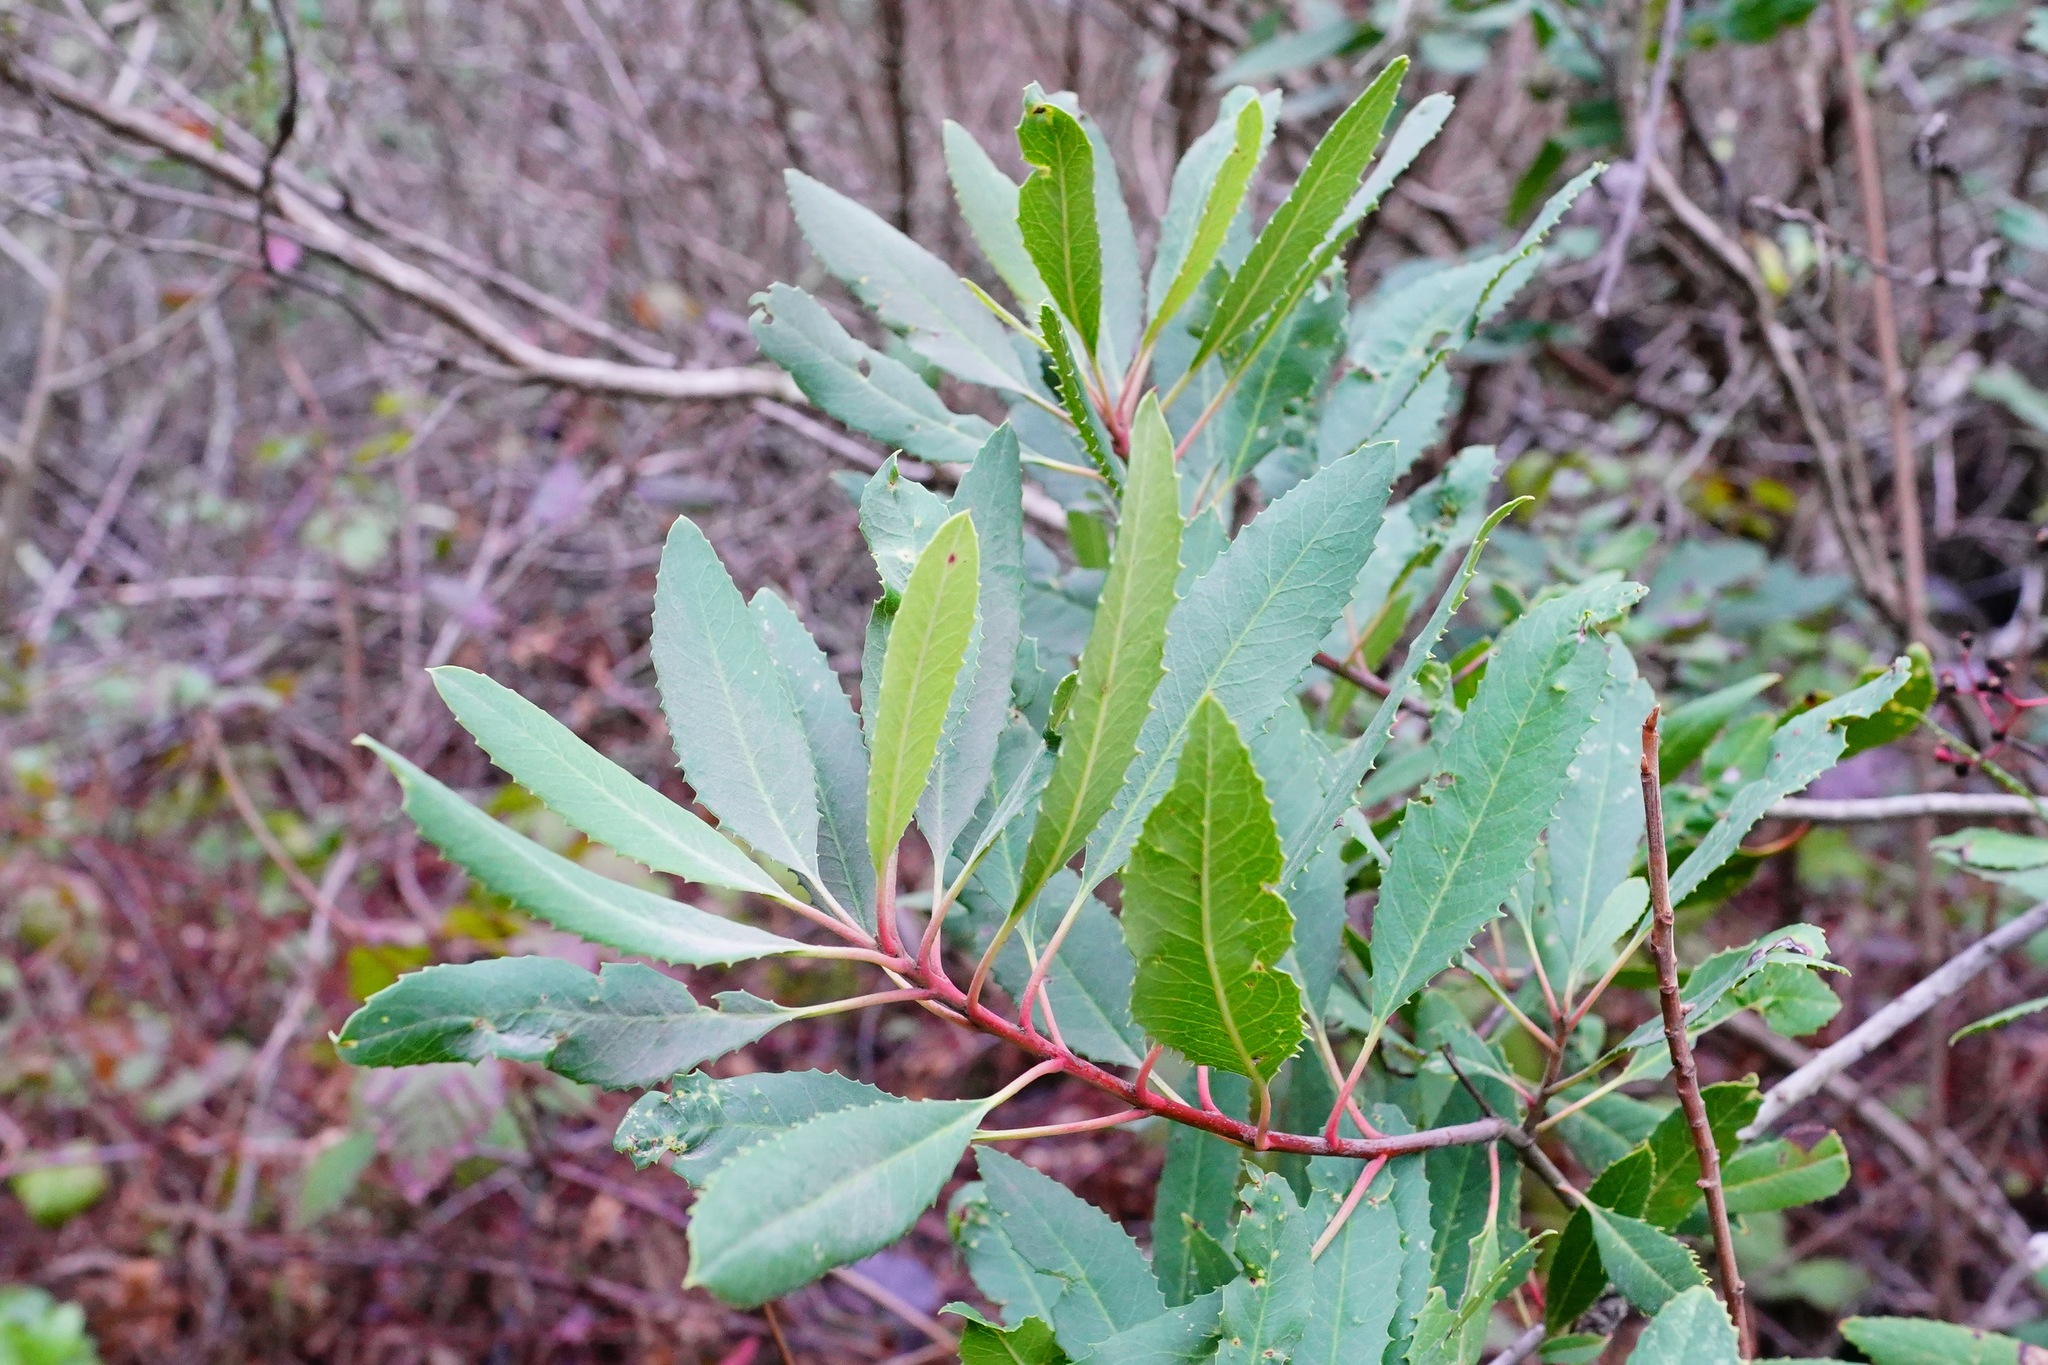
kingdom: Plantae
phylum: Tracheophyta
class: Magnoliopsida
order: Rosales
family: Rosaceae
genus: Heteromeles
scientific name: Heteromeles arbutifolia
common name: California-holly
